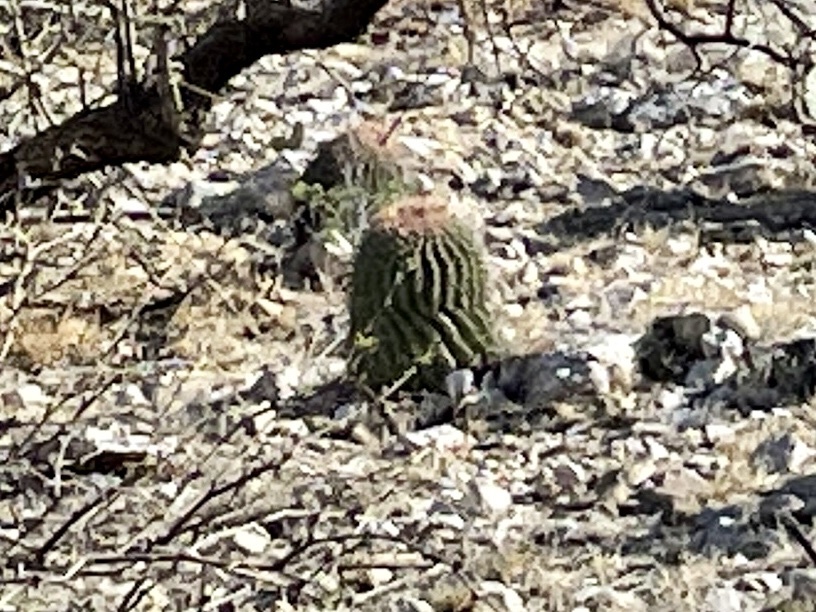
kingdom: Plantae
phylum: Tracheophyta
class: Magnoliopsida
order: Caryophyllales
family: Cactaceae
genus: Ferocactus
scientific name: Ferocactus wislizeni
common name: Candy barrel cactus
